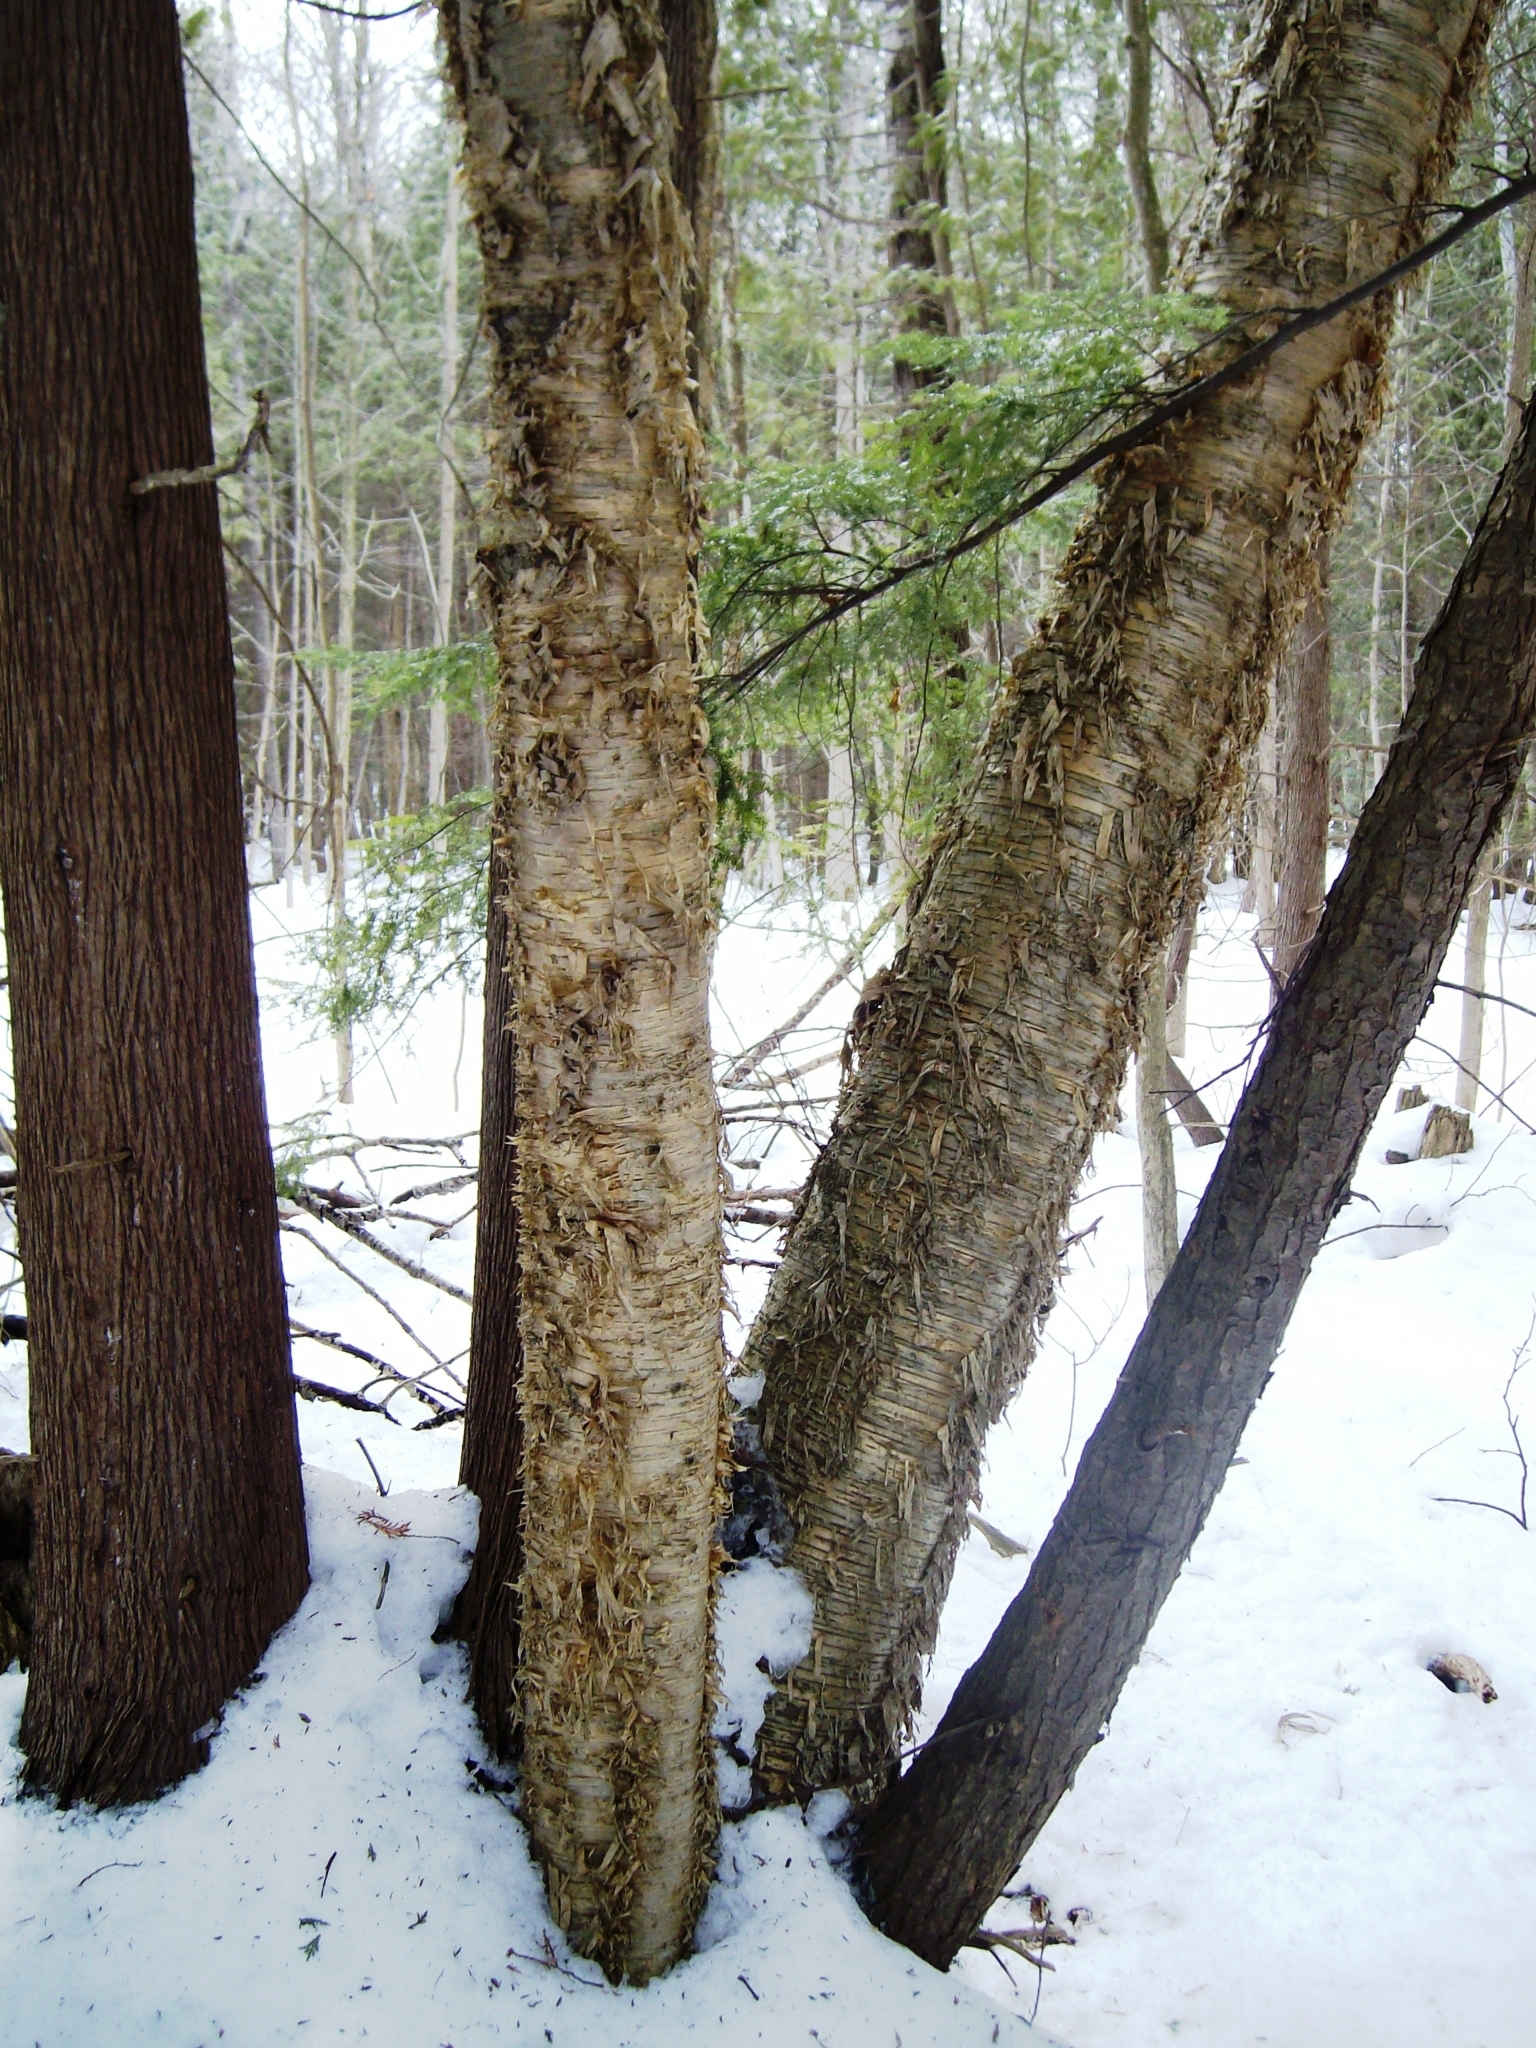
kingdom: Plantae
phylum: Tracheophyta
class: Magnoliopsida
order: Fagales
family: Betulaceae
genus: Betula
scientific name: Betula alleghaniensis
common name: Yellow birch
